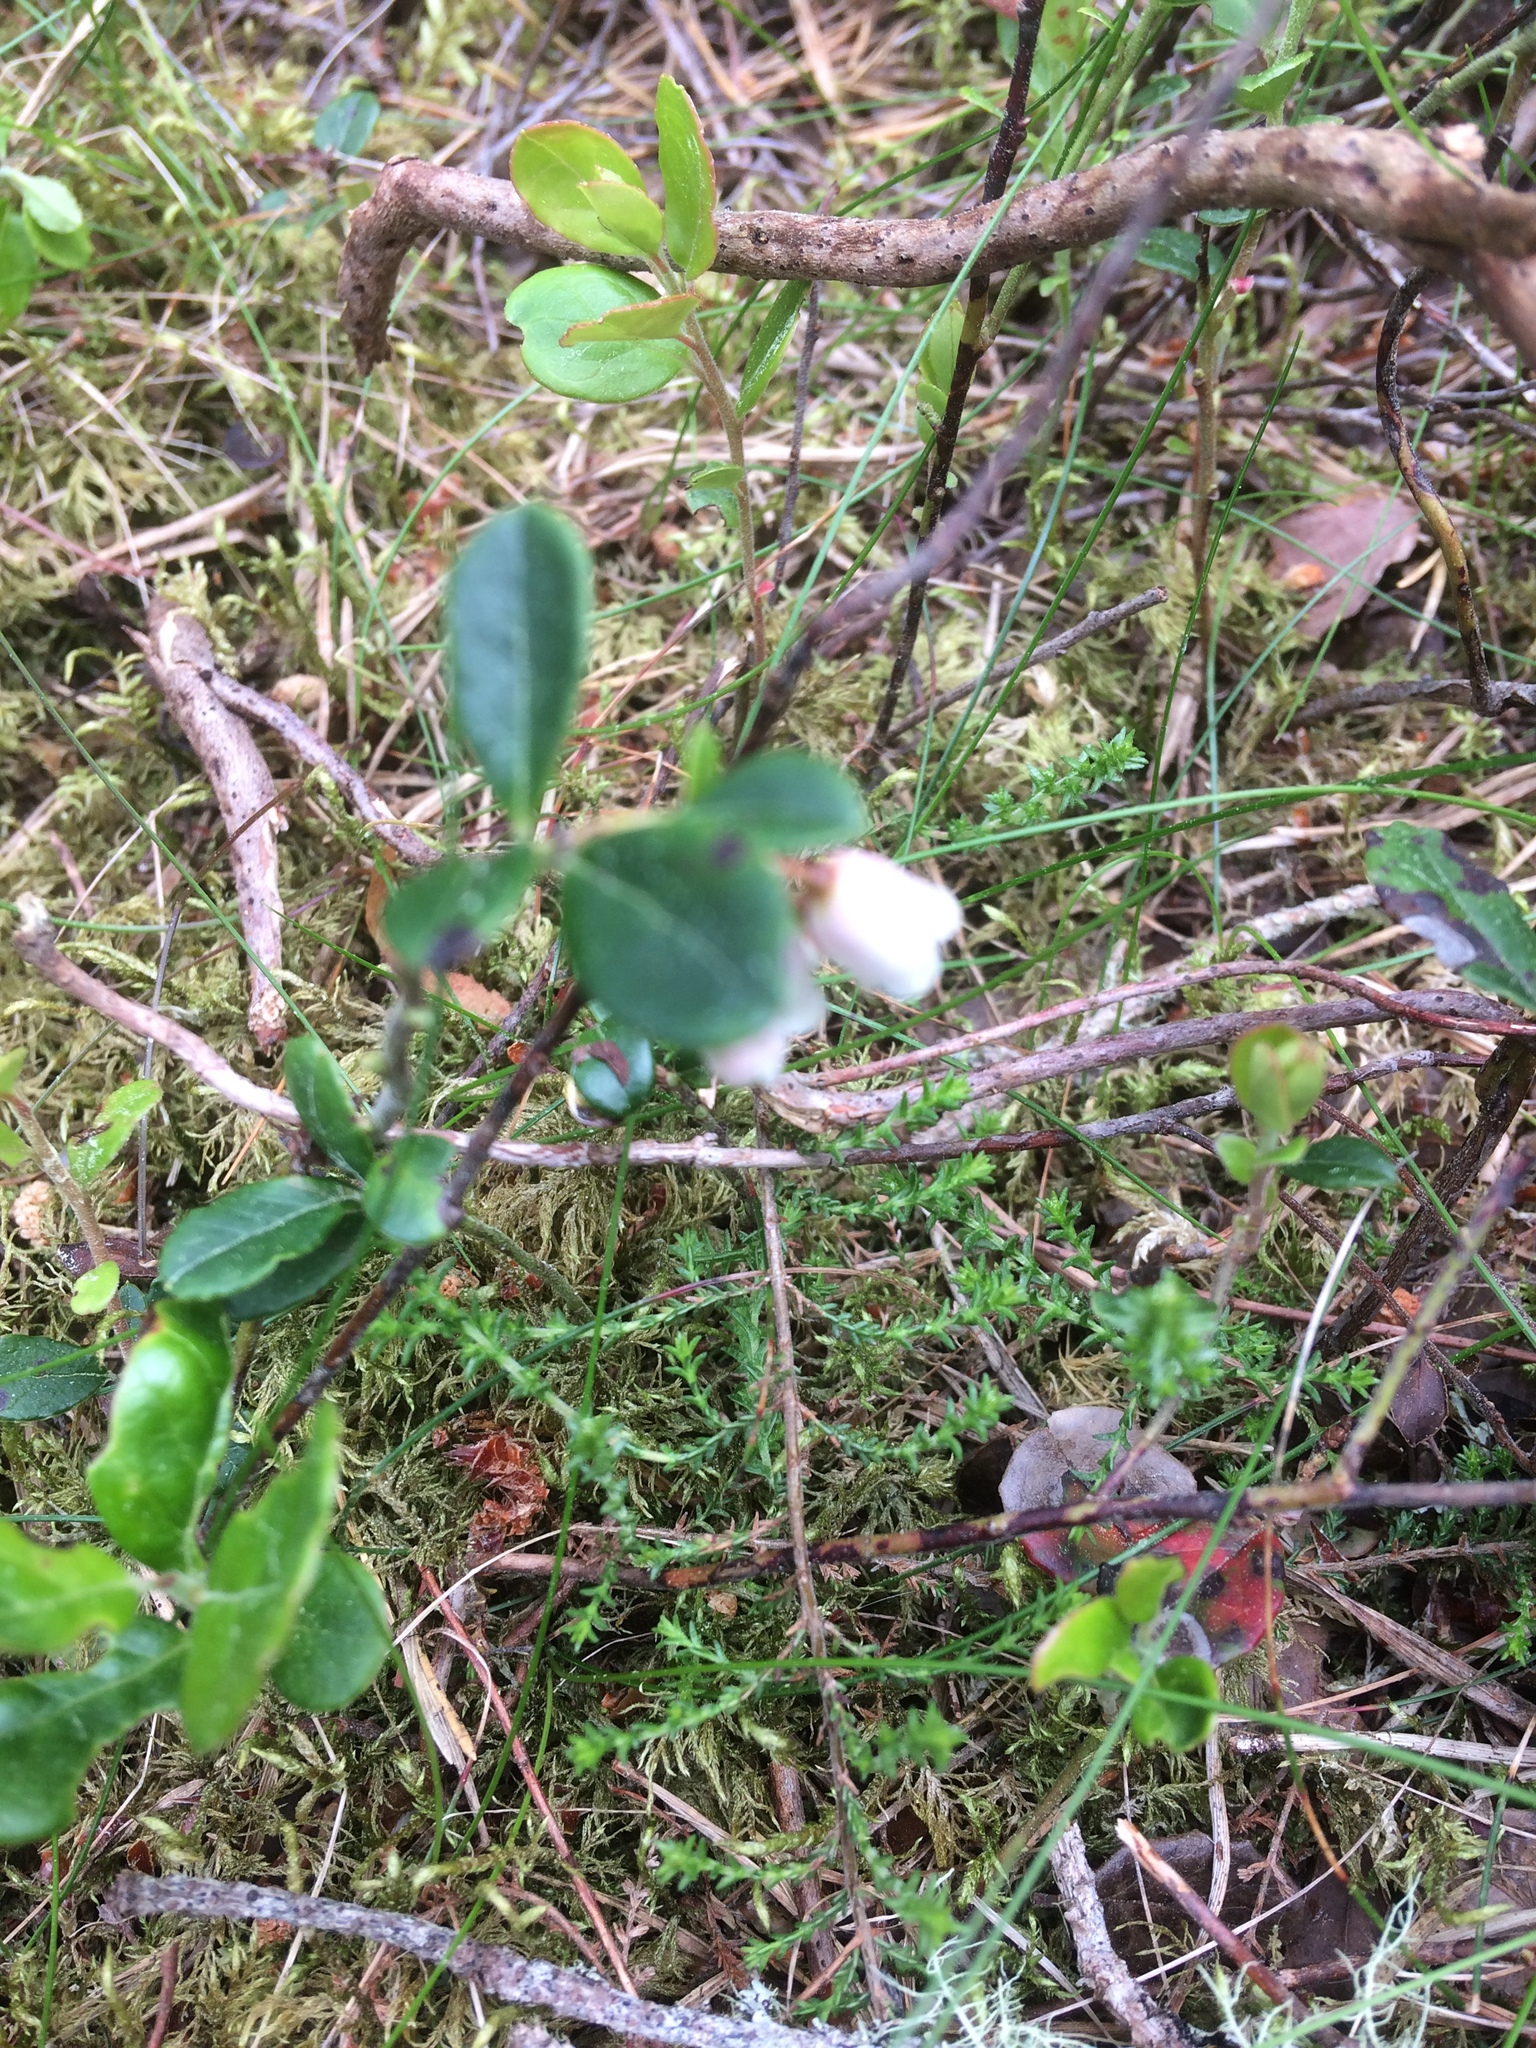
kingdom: Plantae
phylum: Tracheophyta
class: Magnoliopsida
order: Ericales
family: Ericaceae
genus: Vaccinium
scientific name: Vaccinium vitis-idaea
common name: Cowberry
